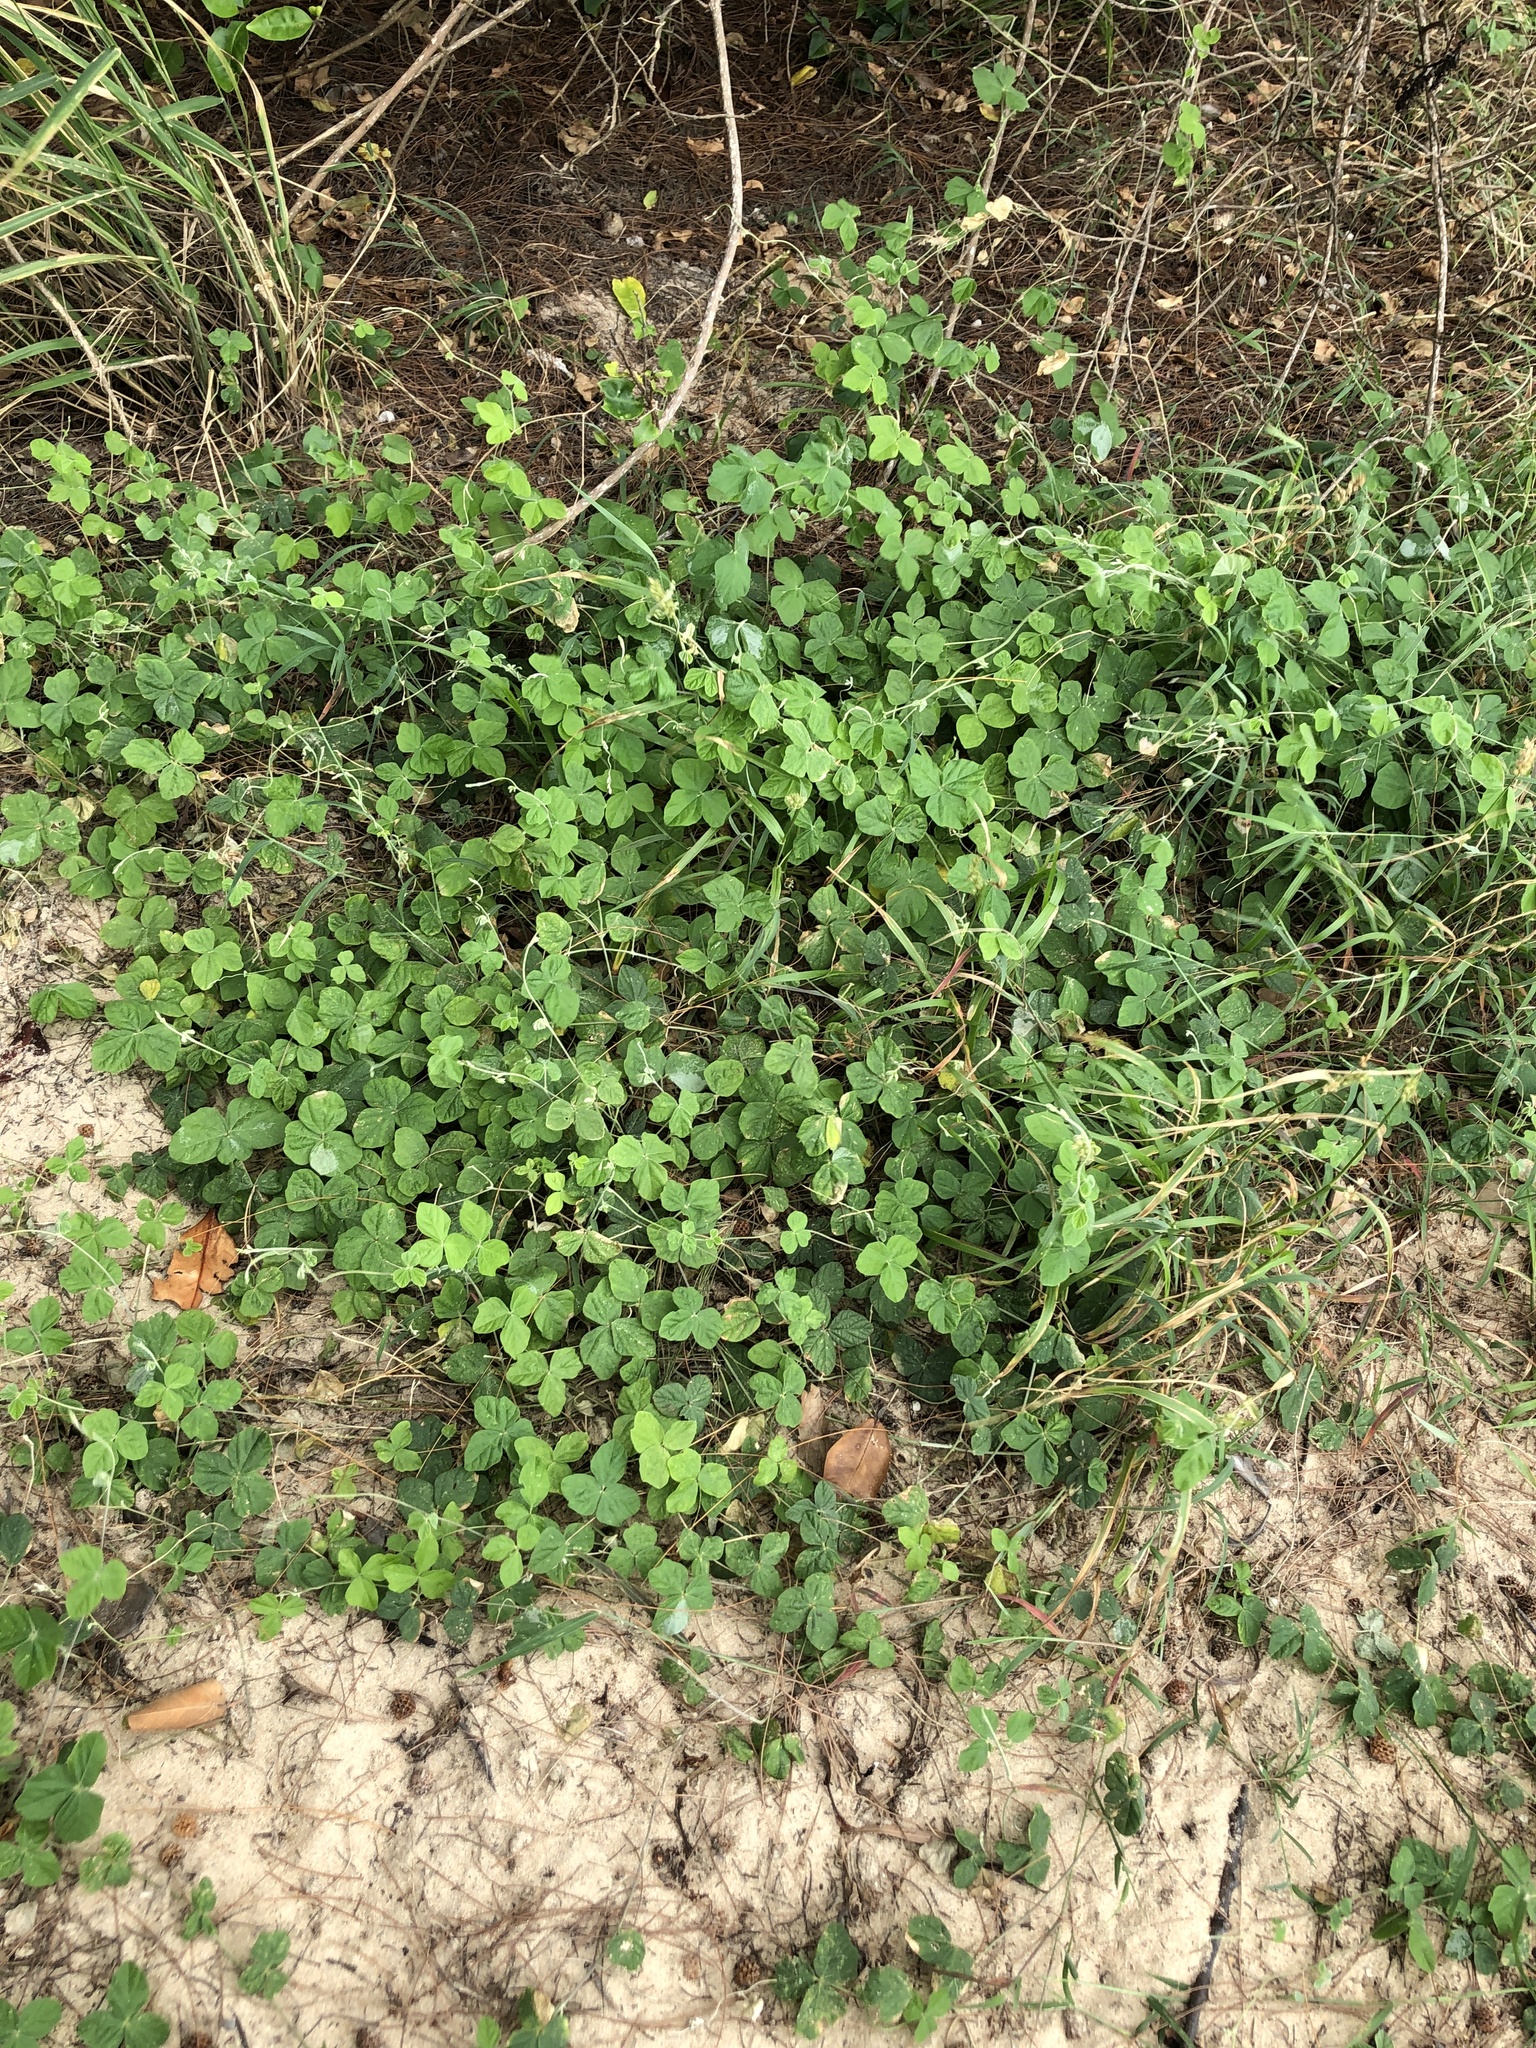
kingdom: Plantae
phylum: Tracheophyta
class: Magnoliopsida
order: Fabales
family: Fabaceae
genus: Macroptilium
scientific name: Macroptilium atropurpureum
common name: Purple bushbean
